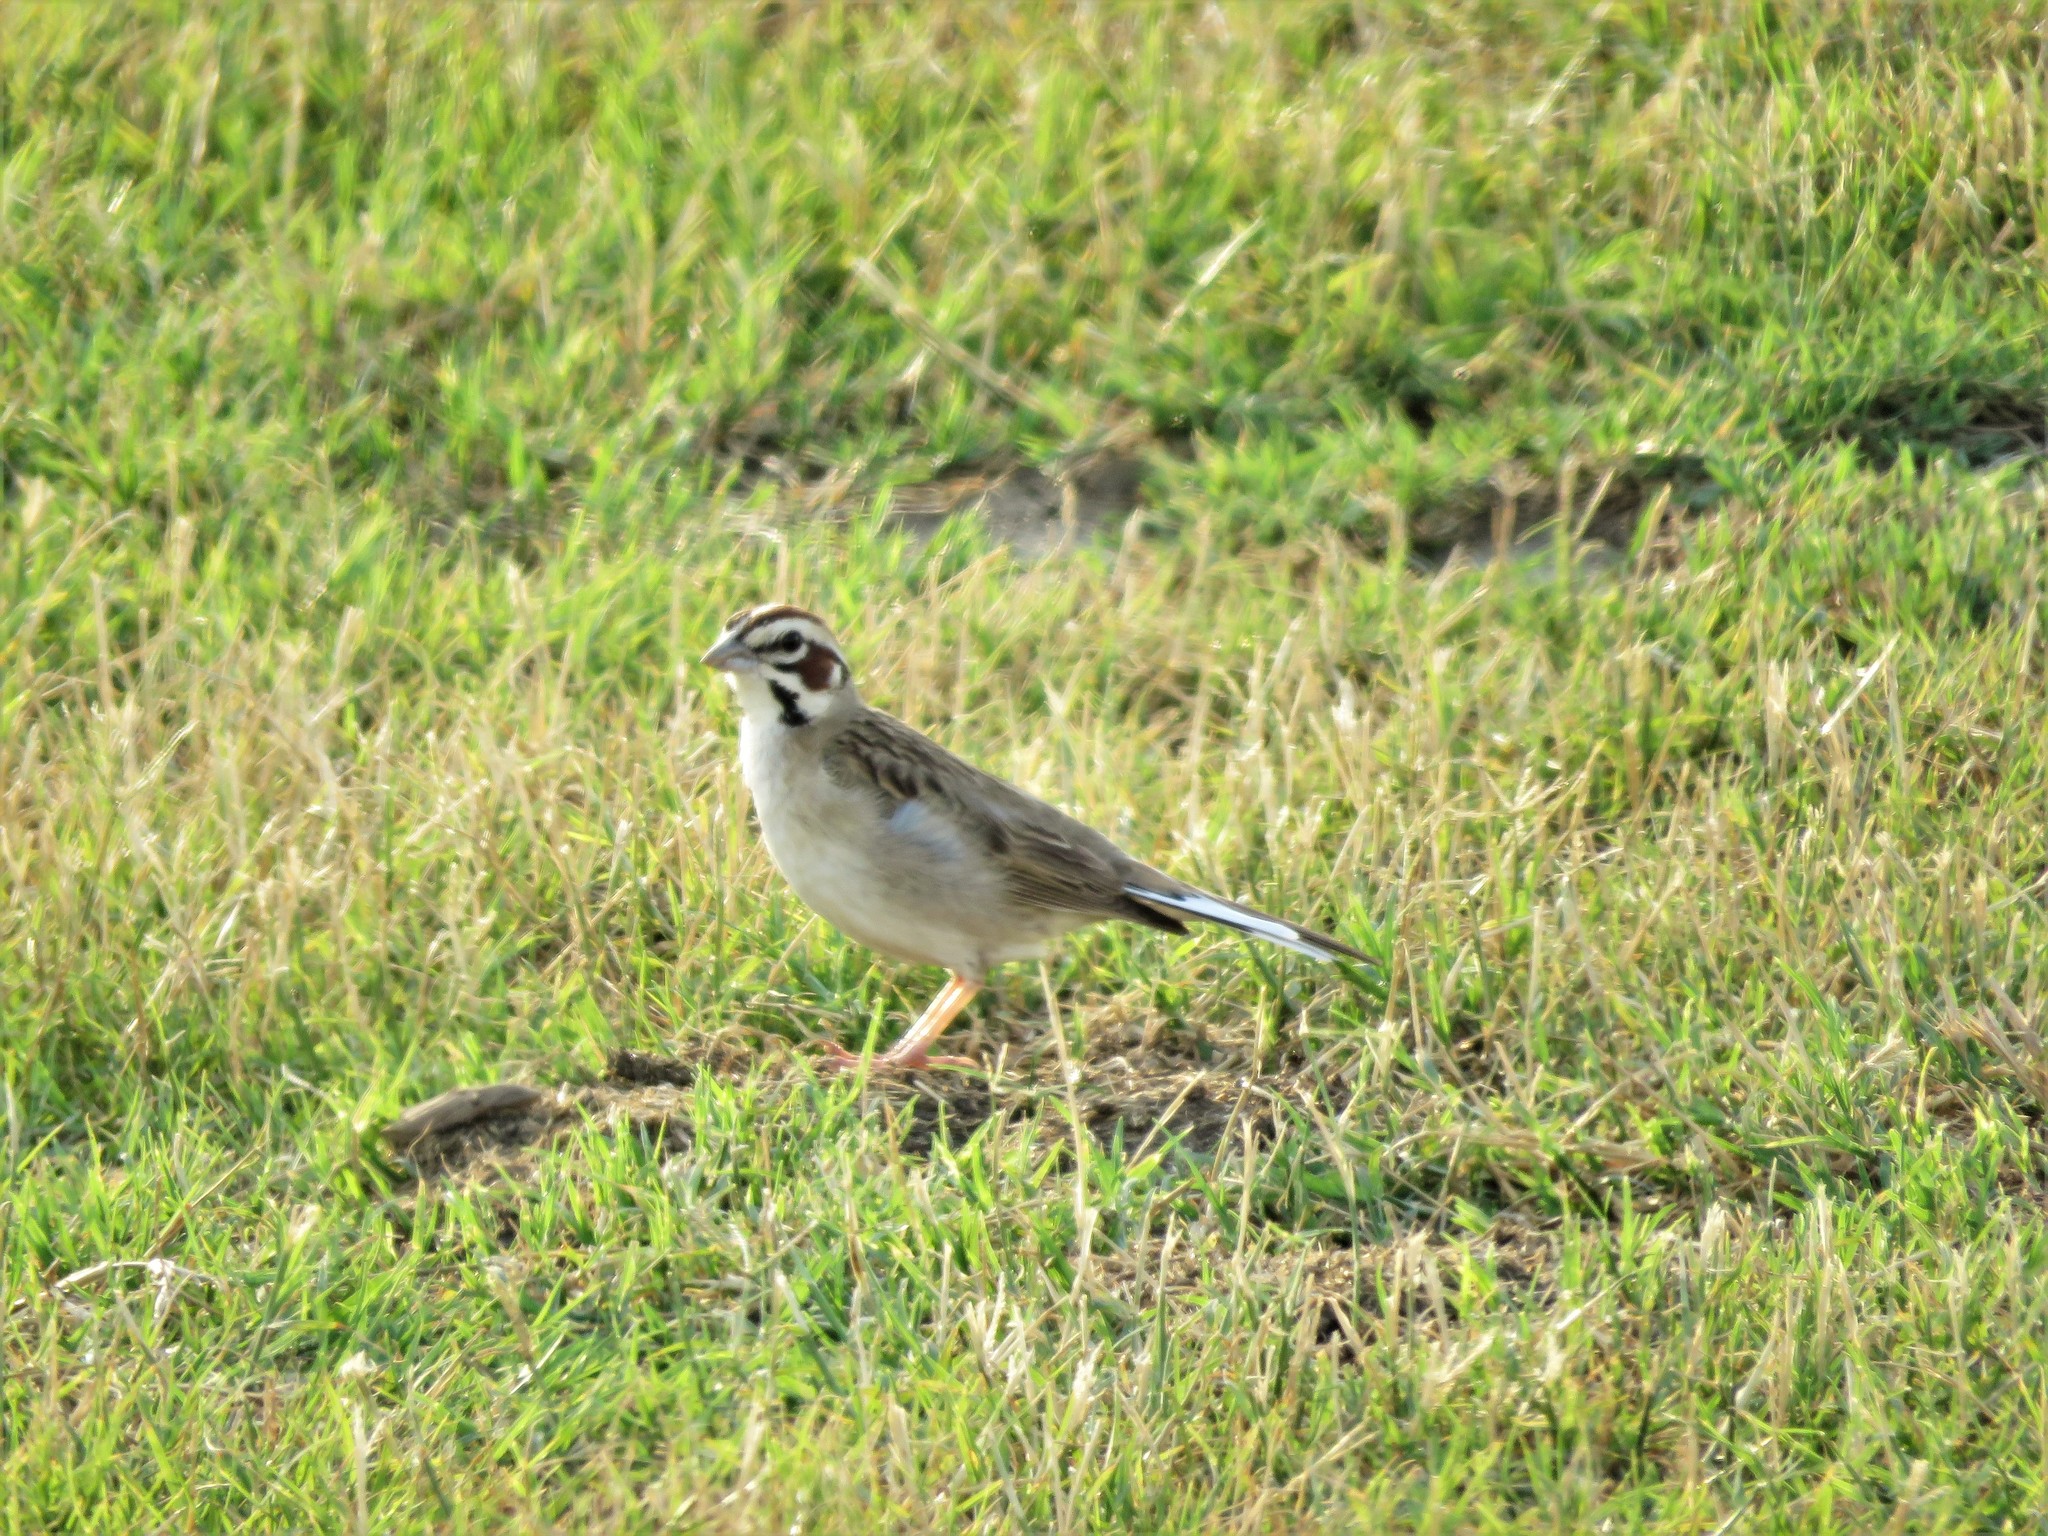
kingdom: Animalia
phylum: Chordata
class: Aves
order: Passeriformes
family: Passerellidae
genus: Chondestes
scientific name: Chondestes grammacus
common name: Lark sparrow
